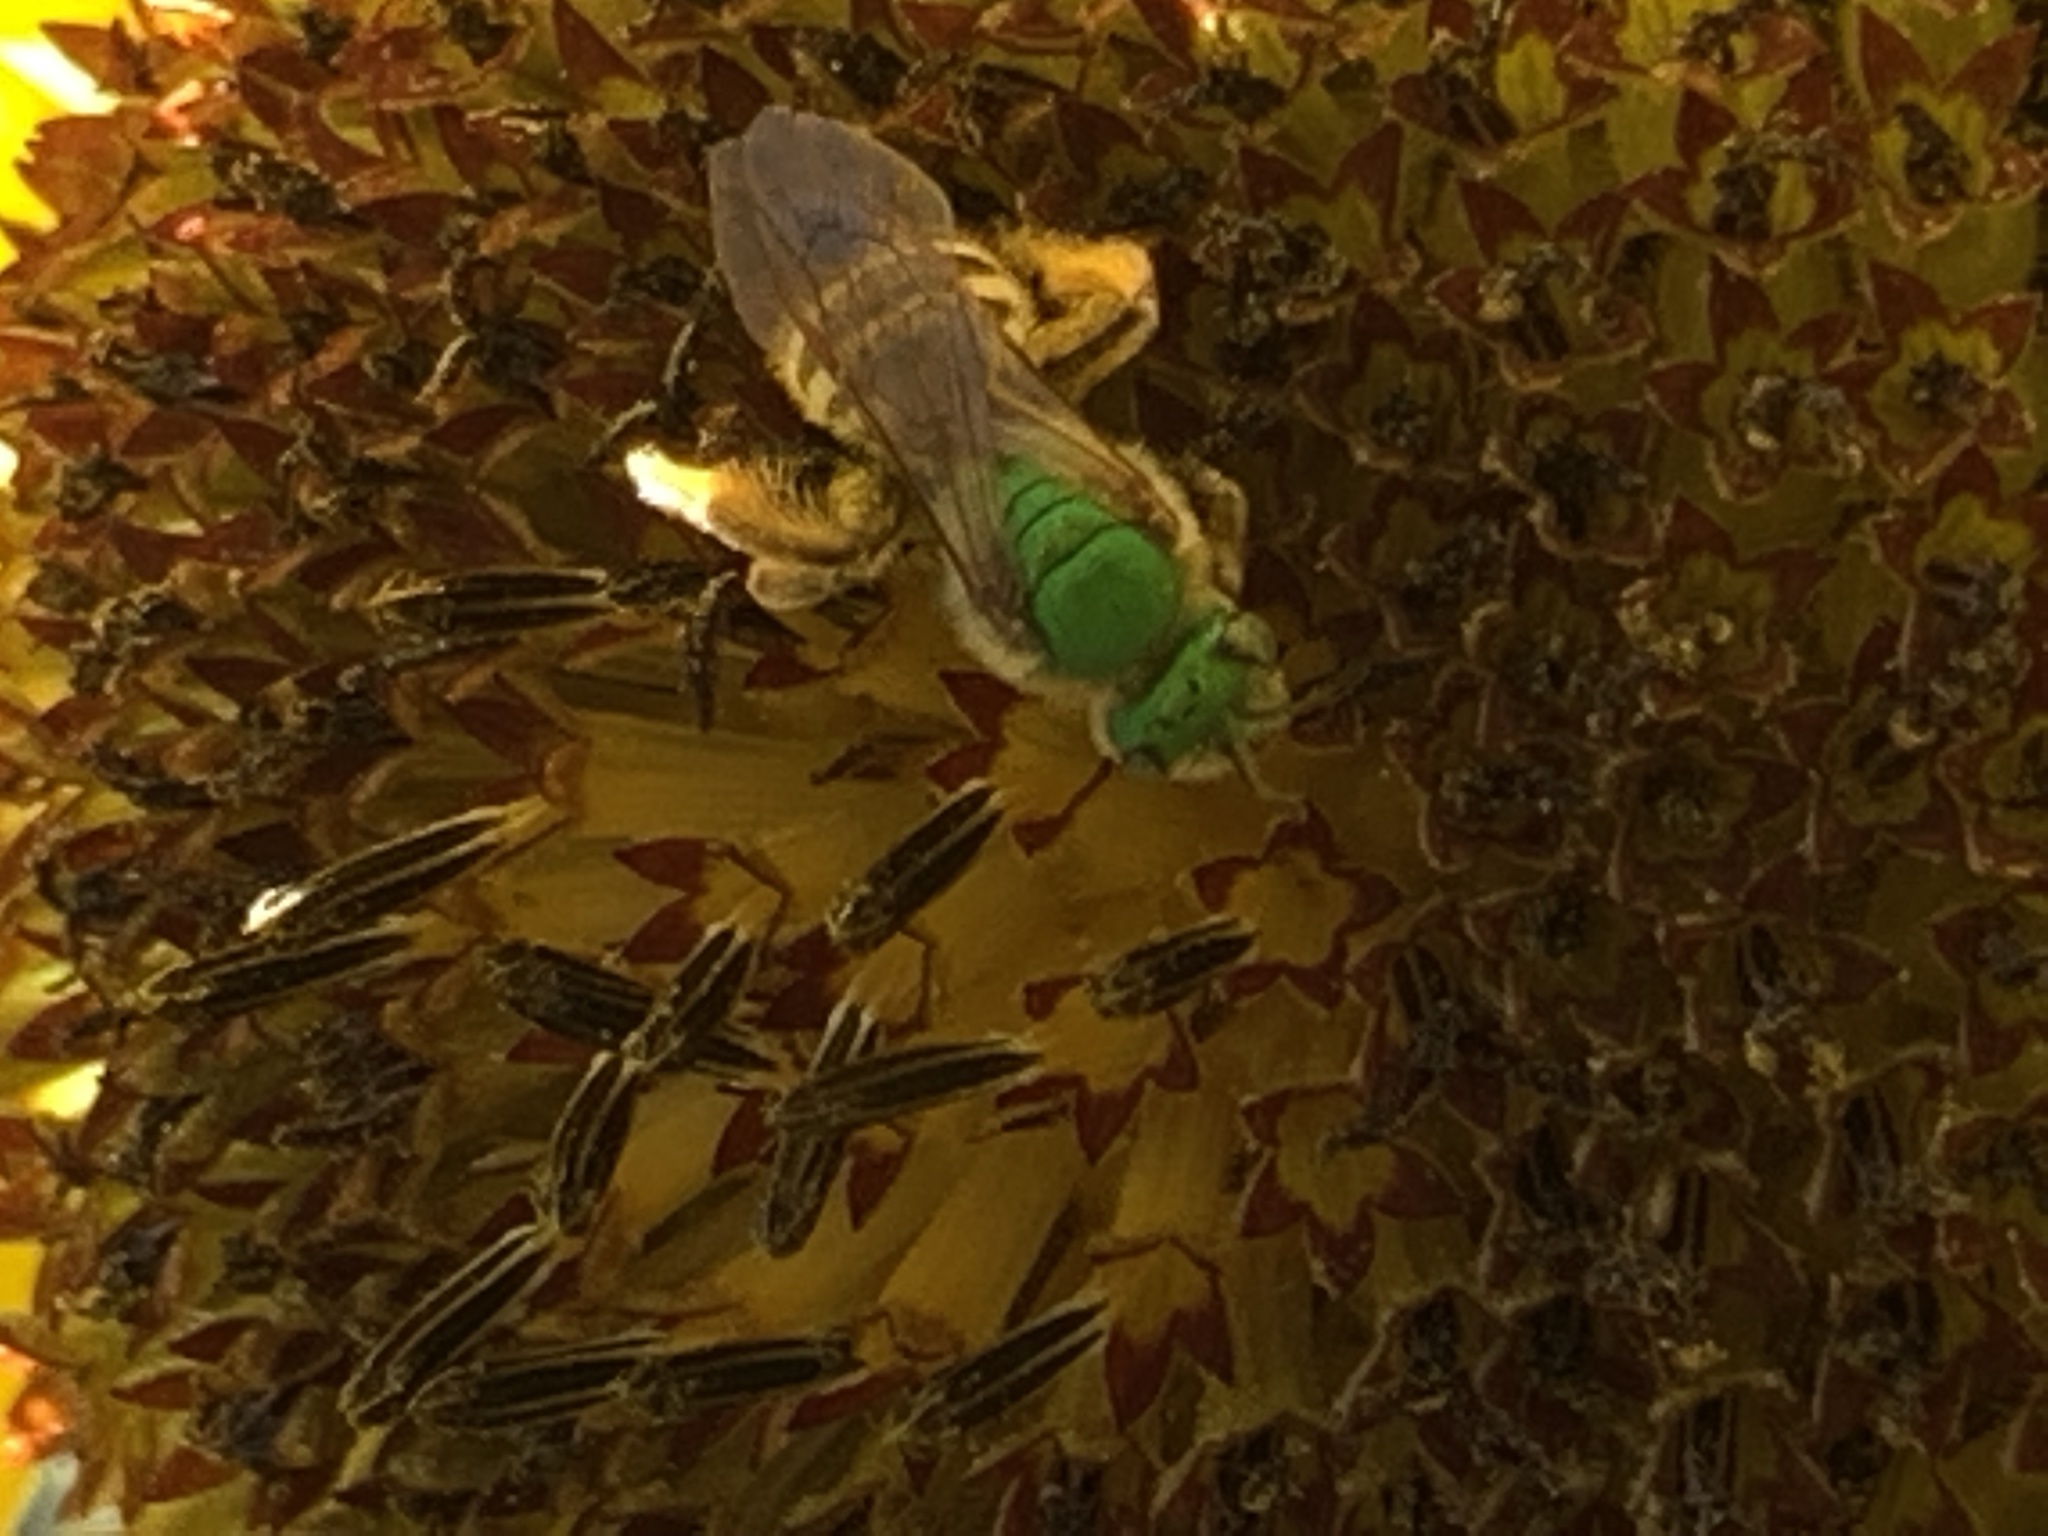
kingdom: Animalia
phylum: Arthropoda
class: Insecta
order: Hymenoptera
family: Halictidae
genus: Agapostemon
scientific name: Agapostemon virescens
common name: Bicolored striped sweat bee
